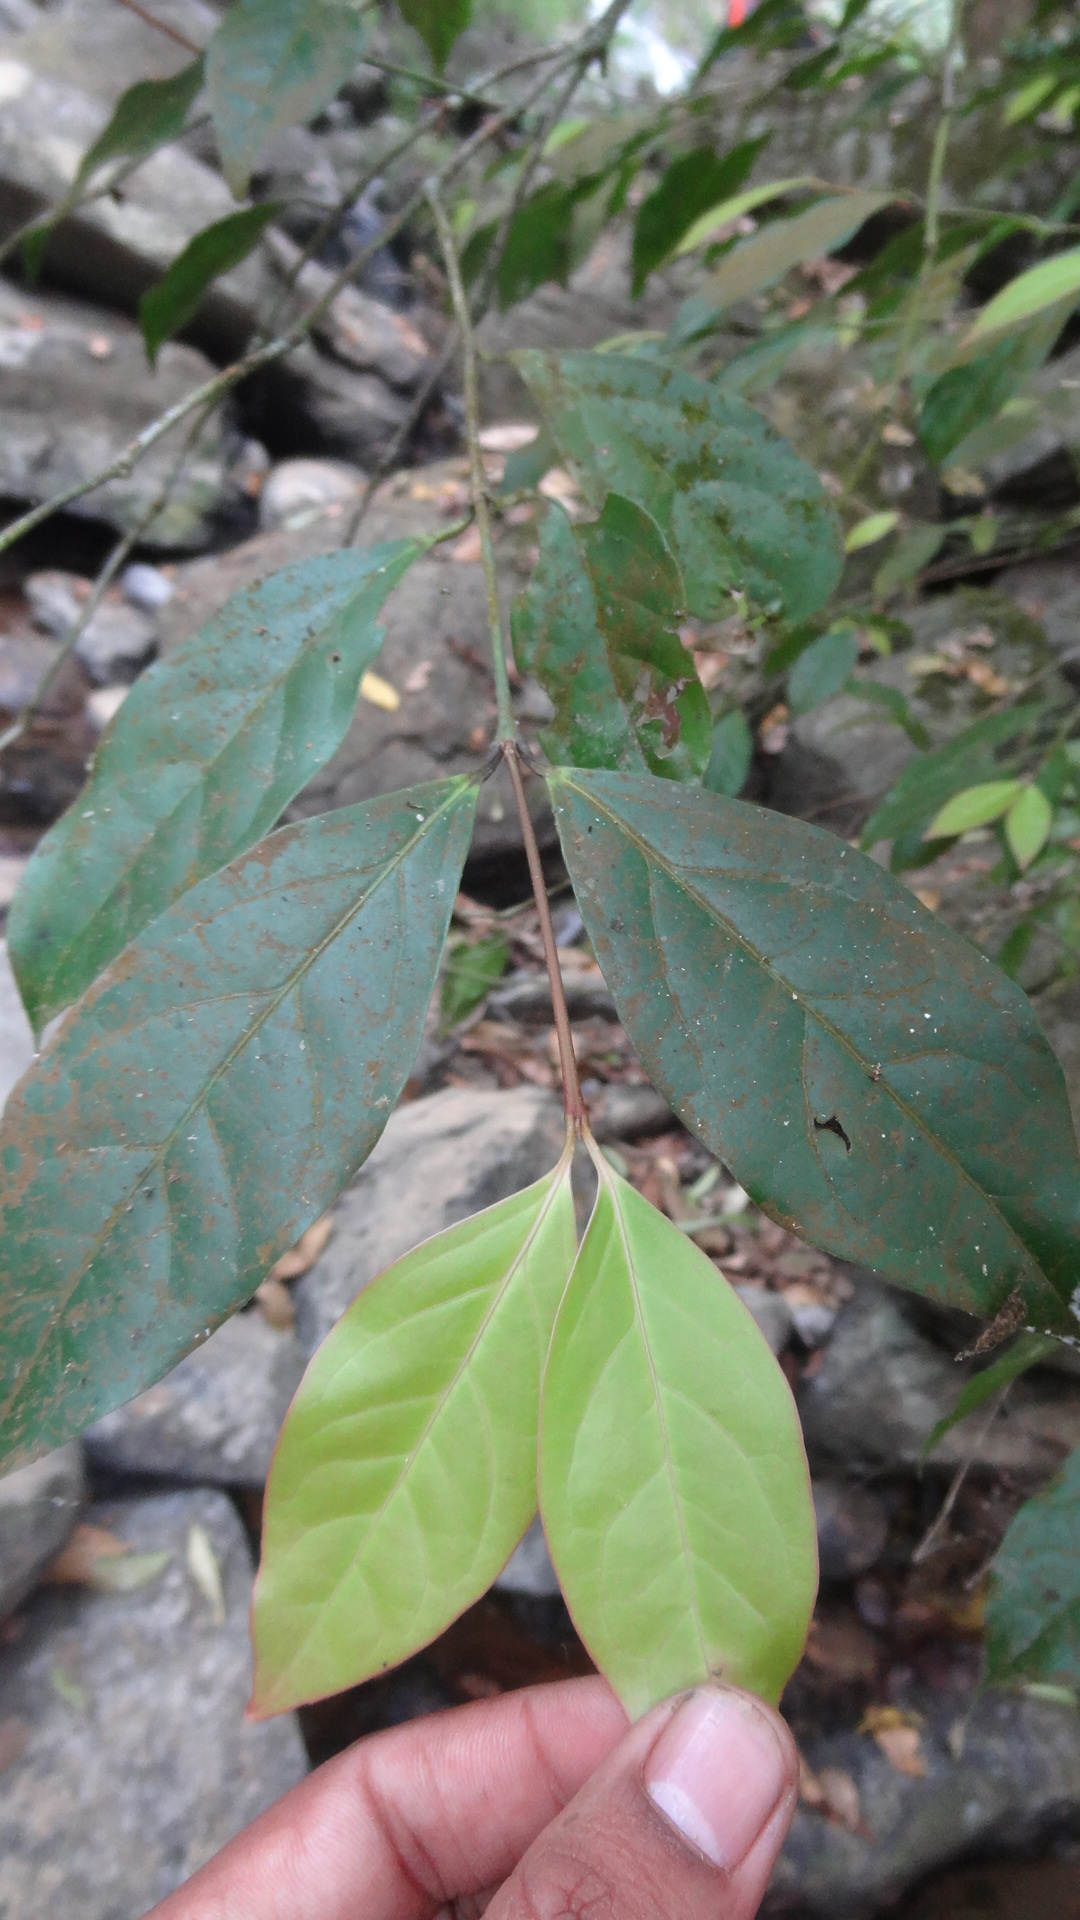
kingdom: Plantae
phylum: Tracheophyta
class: Magnoliopsida
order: Celastrales
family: Celastraceae
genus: Euonymus
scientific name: Euonymus indicus
